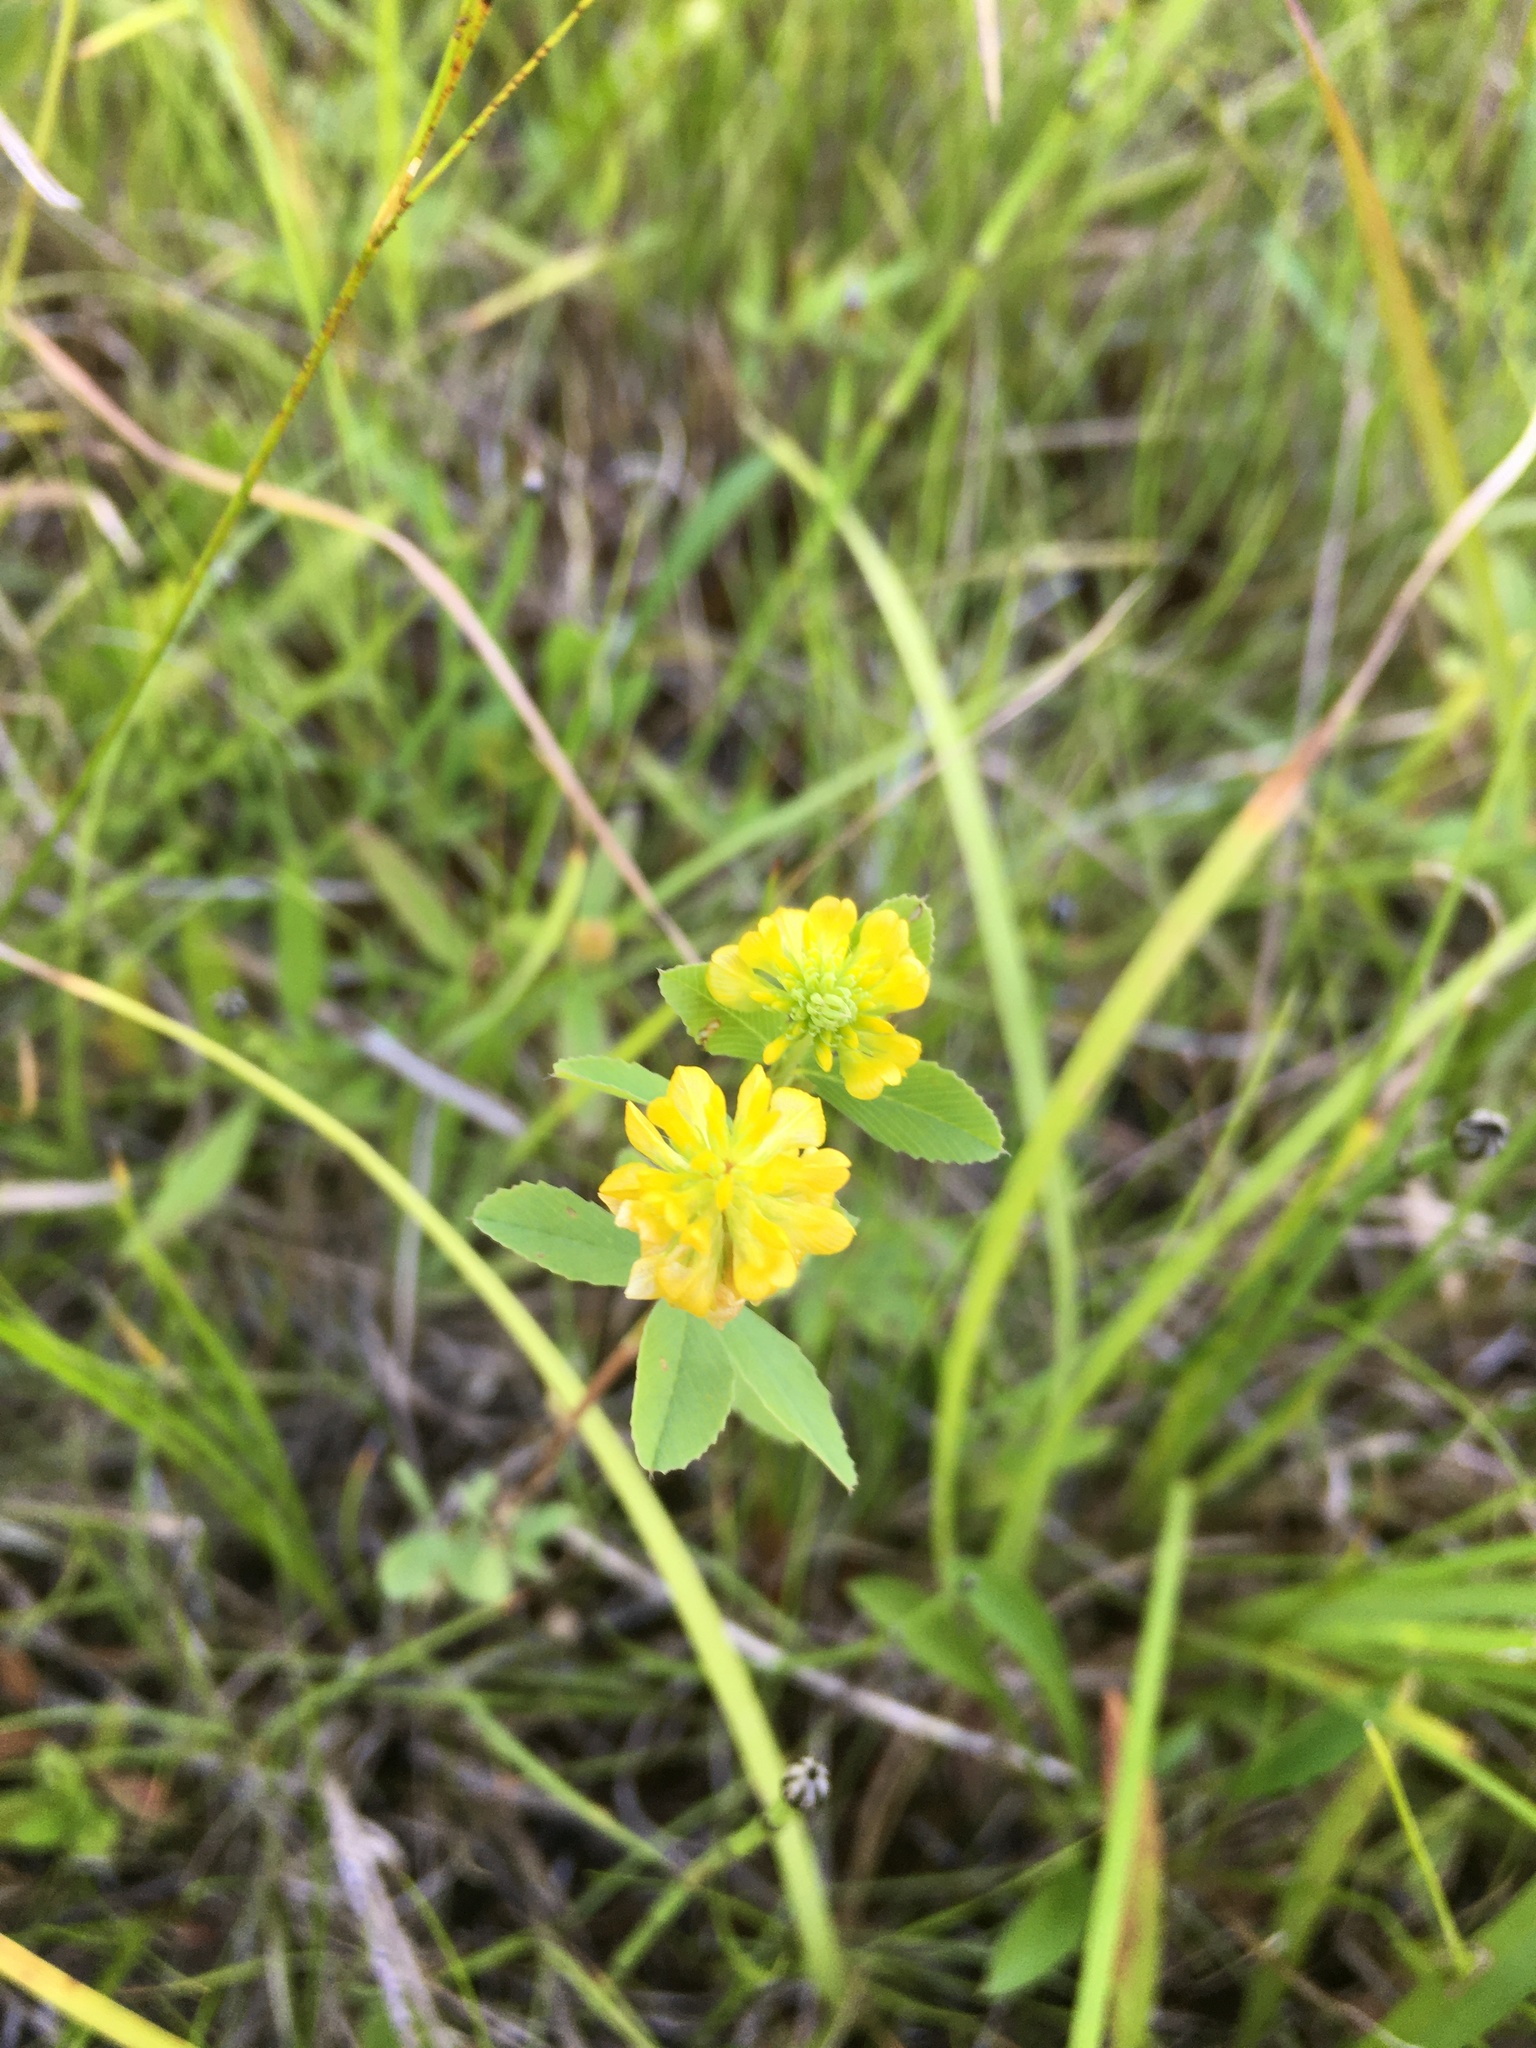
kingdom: Plantae
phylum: Tracheophyta
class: Magnoliopsida
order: Fabales
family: Fabaceae
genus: Trifolium
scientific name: Trifolium aureum
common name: Golden clover
